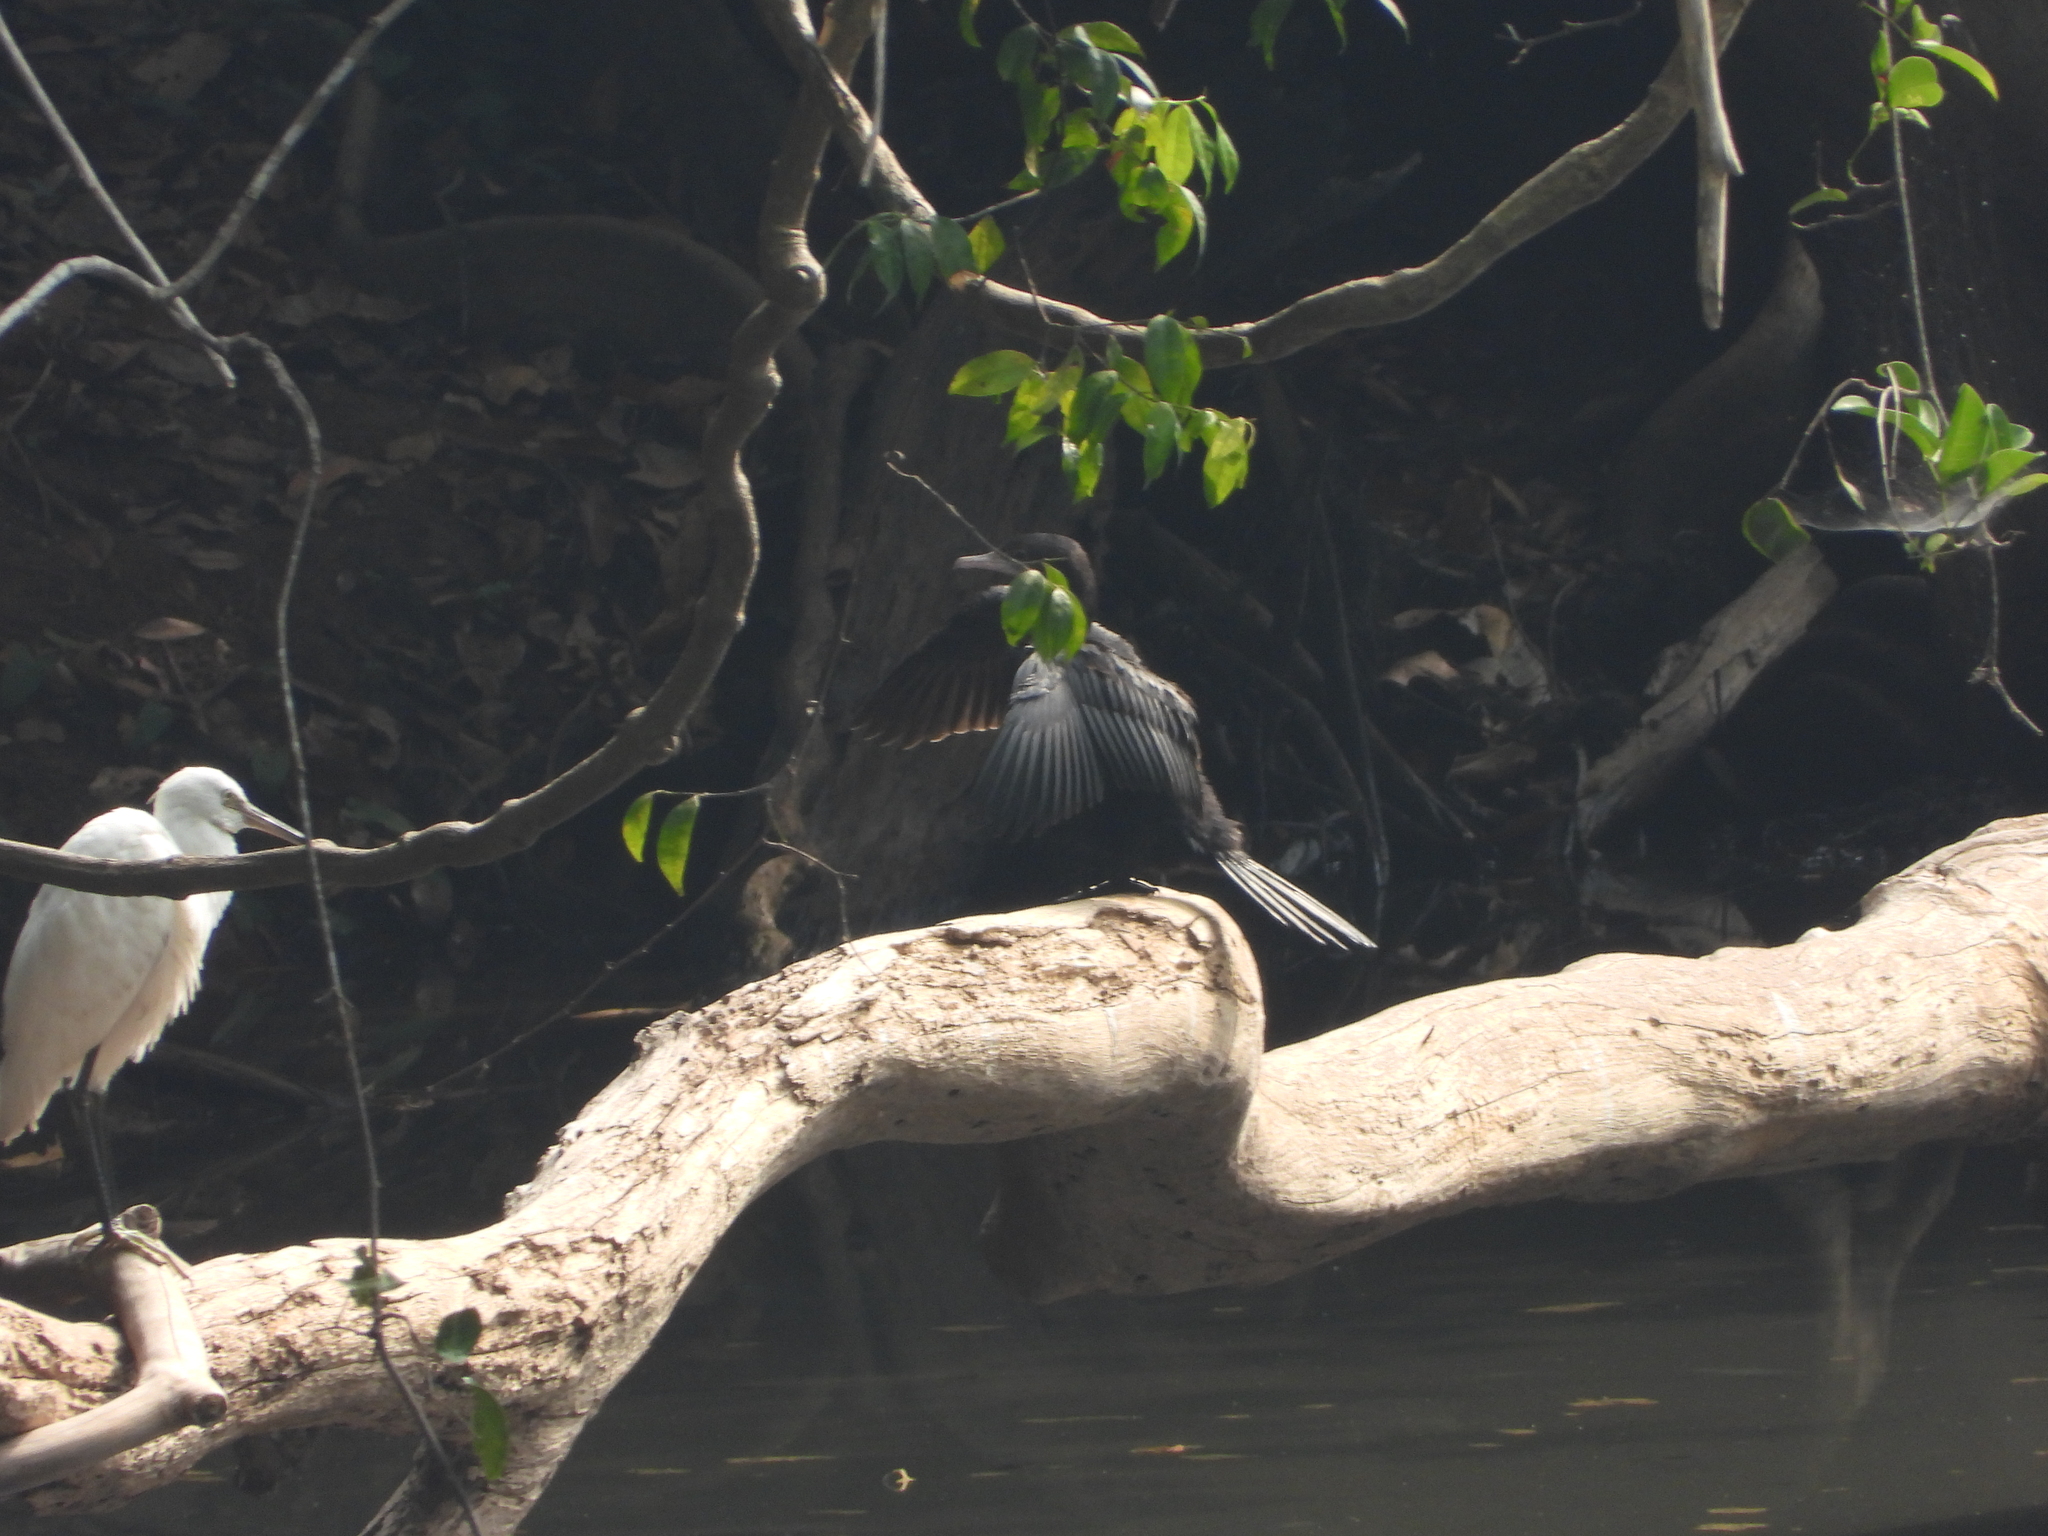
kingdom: Animalia
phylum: Chordata
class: Aves
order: Suliformes
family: Phalacrocoracidae
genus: Microcarbo
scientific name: Microcarbo niger
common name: Little cormorant
